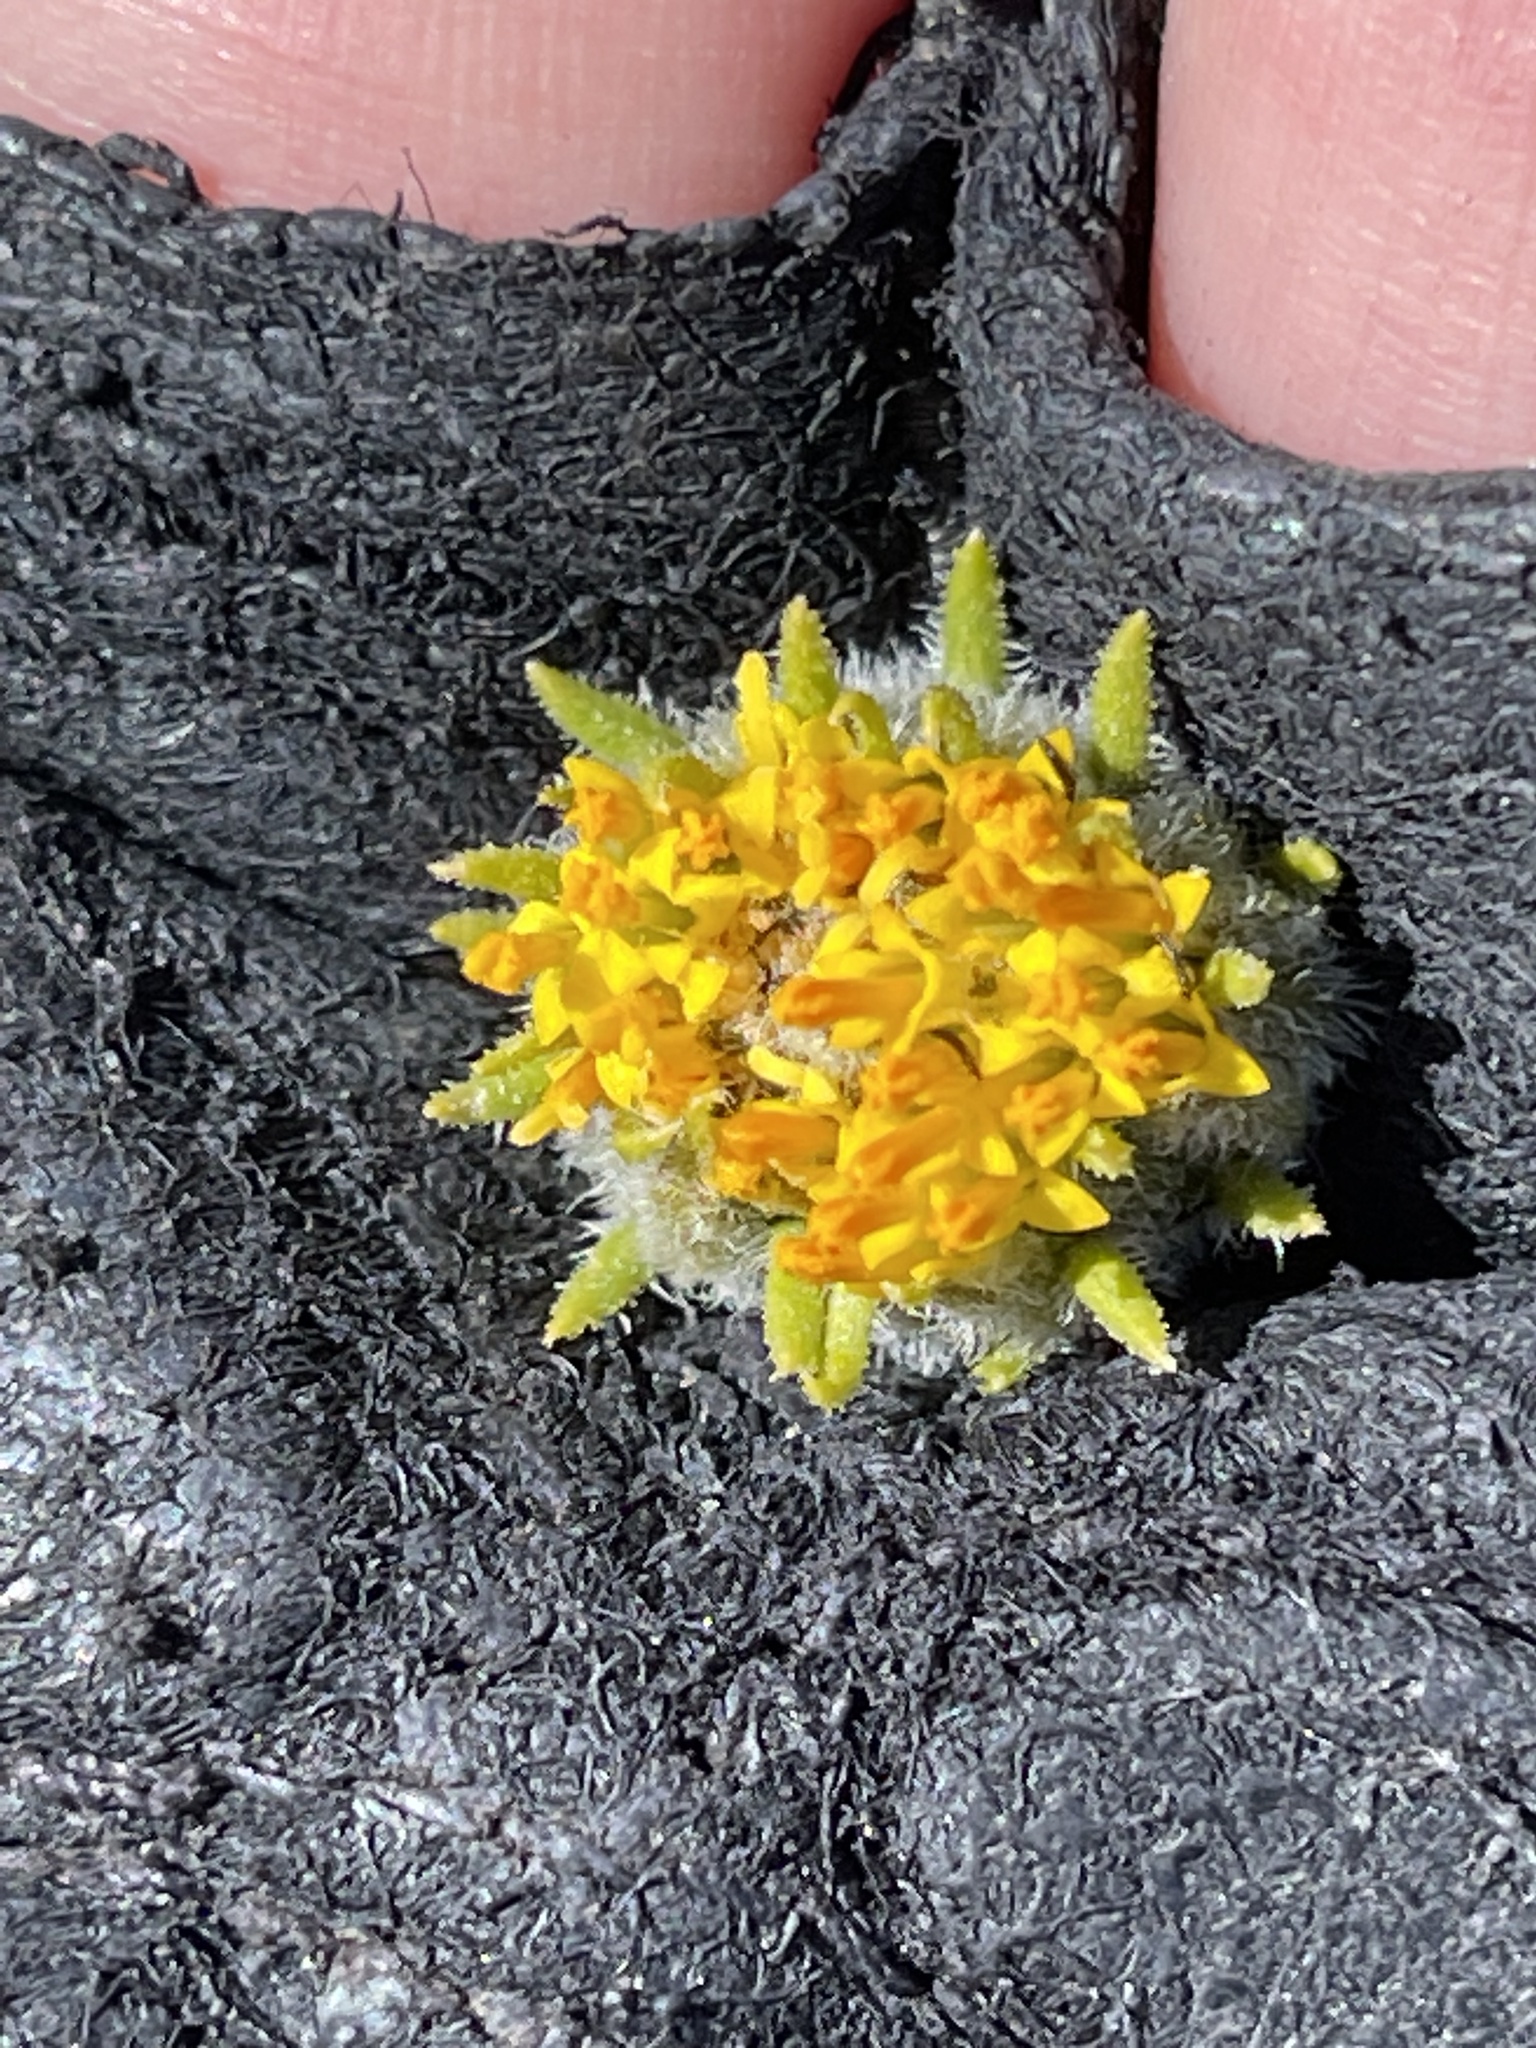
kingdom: Plantae
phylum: Tracheophyta
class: Magnoliopsida
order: Asterales
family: Asteraceae
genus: Encelia
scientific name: Encelia frutescens
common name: Bush encelia
